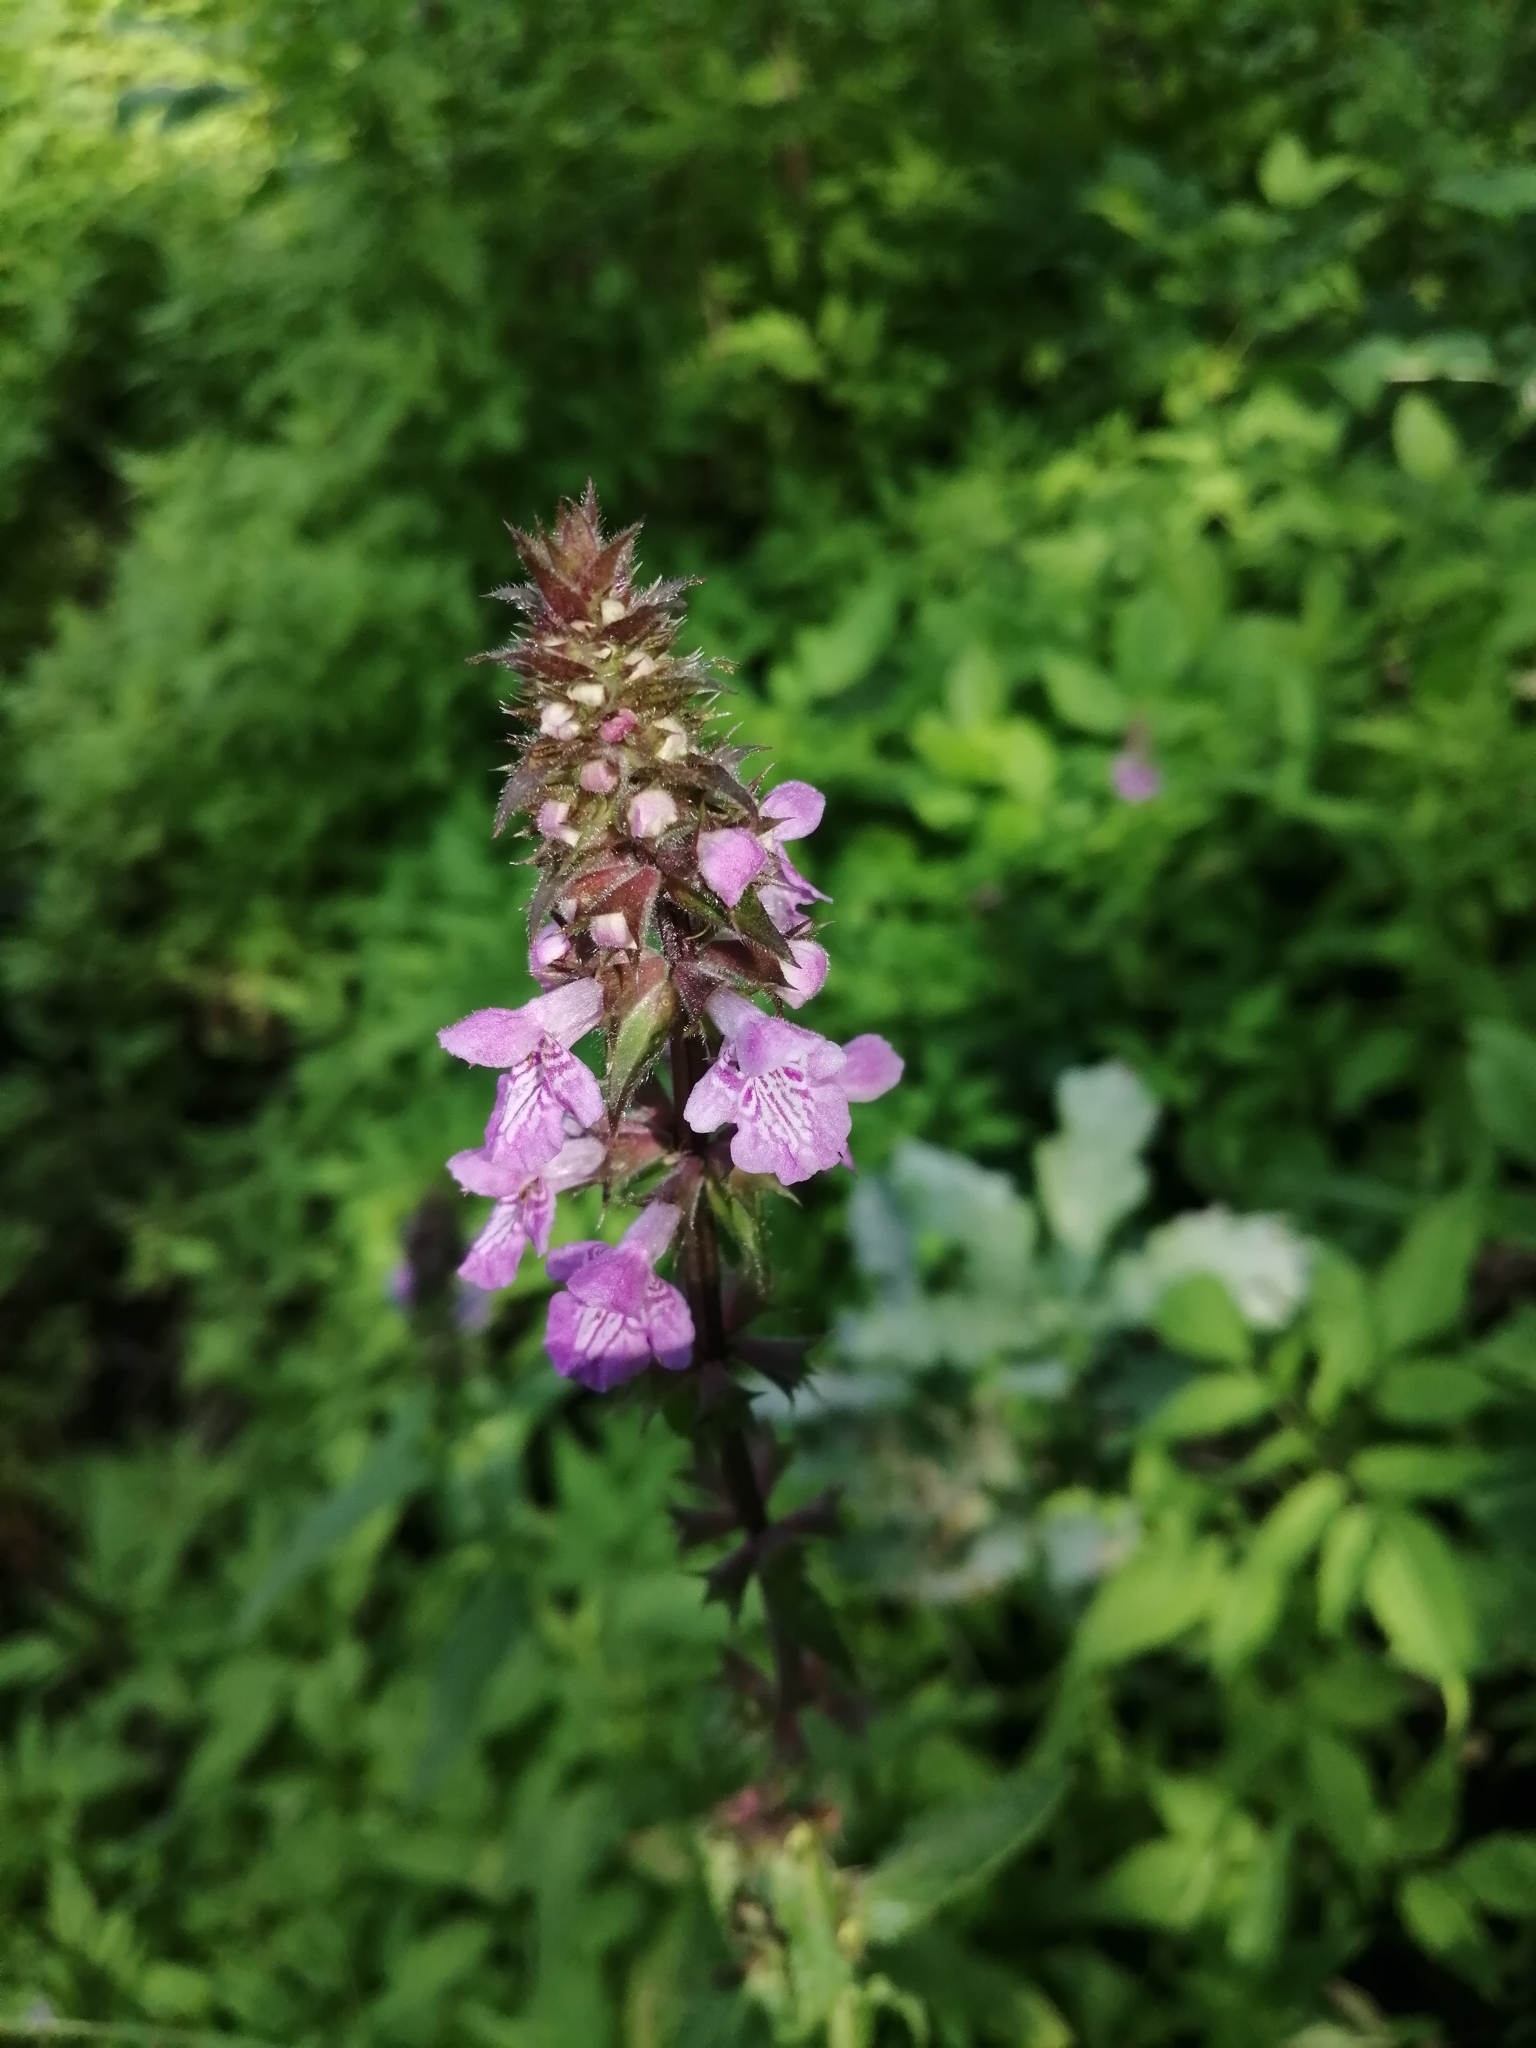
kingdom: Plantae
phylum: Tracheophyta
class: Magnoliopsida
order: Lamiales
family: Lamiaceae
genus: Stachys
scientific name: Stachys palustris
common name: Marsh woundwort
